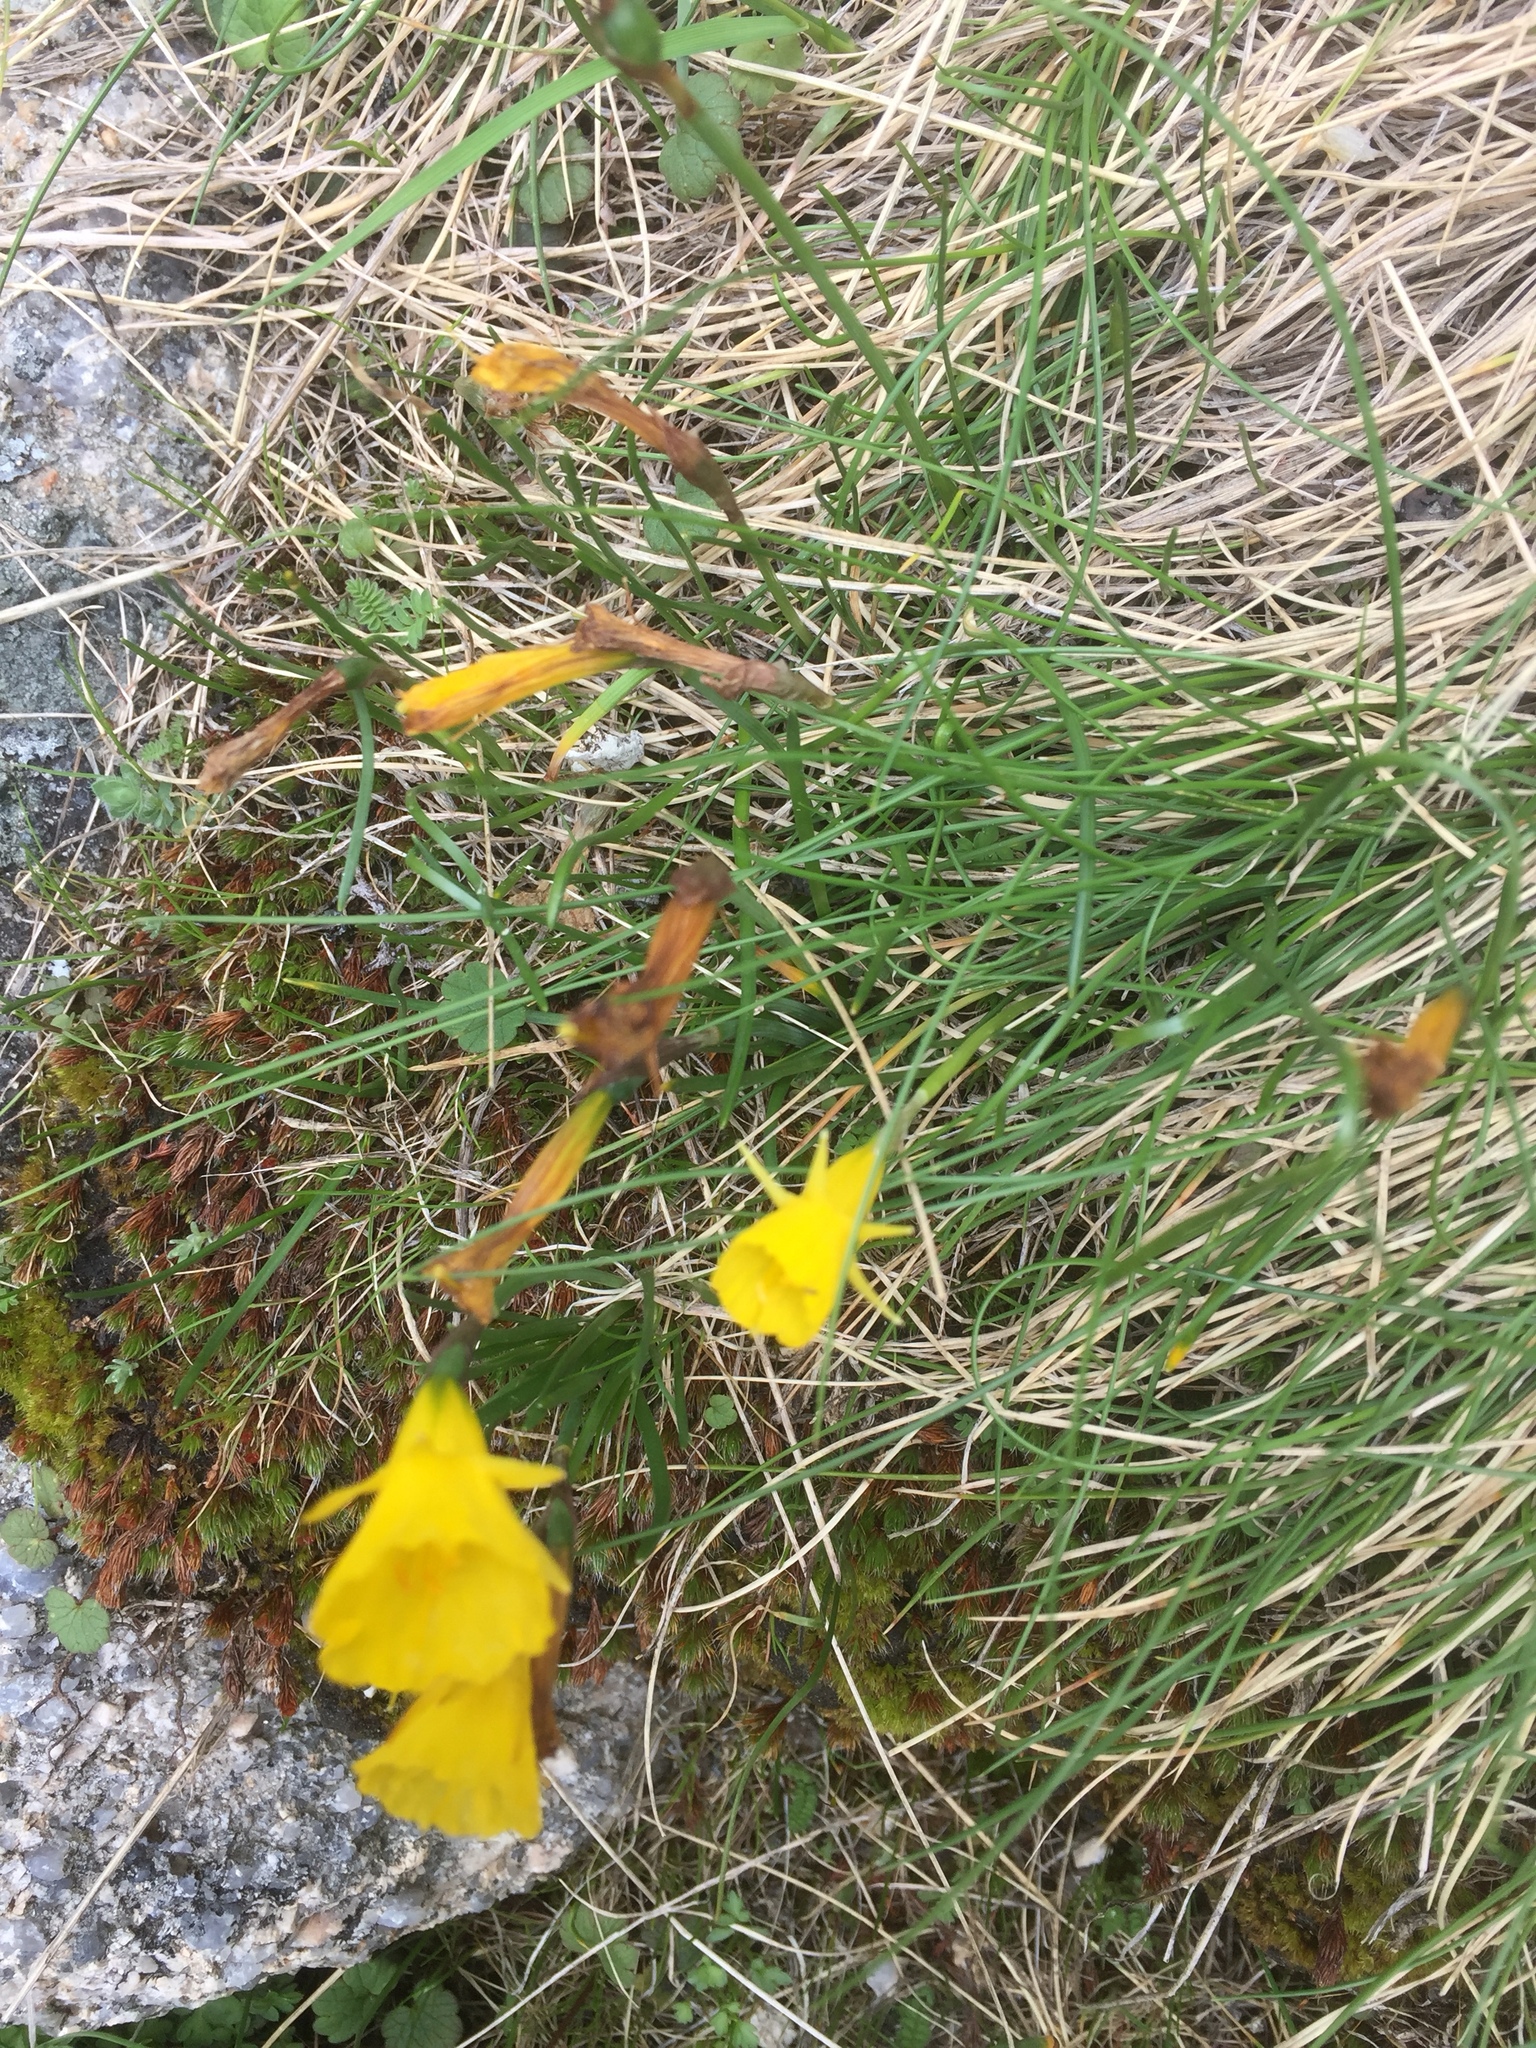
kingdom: Plantae
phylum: Tracheophyta
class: Liliopsida
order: Asparagales
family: Amaryllidaceae
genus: Narcissus
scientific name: Narcissus bulbocodium
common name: Hoop-petticoat daffodil
